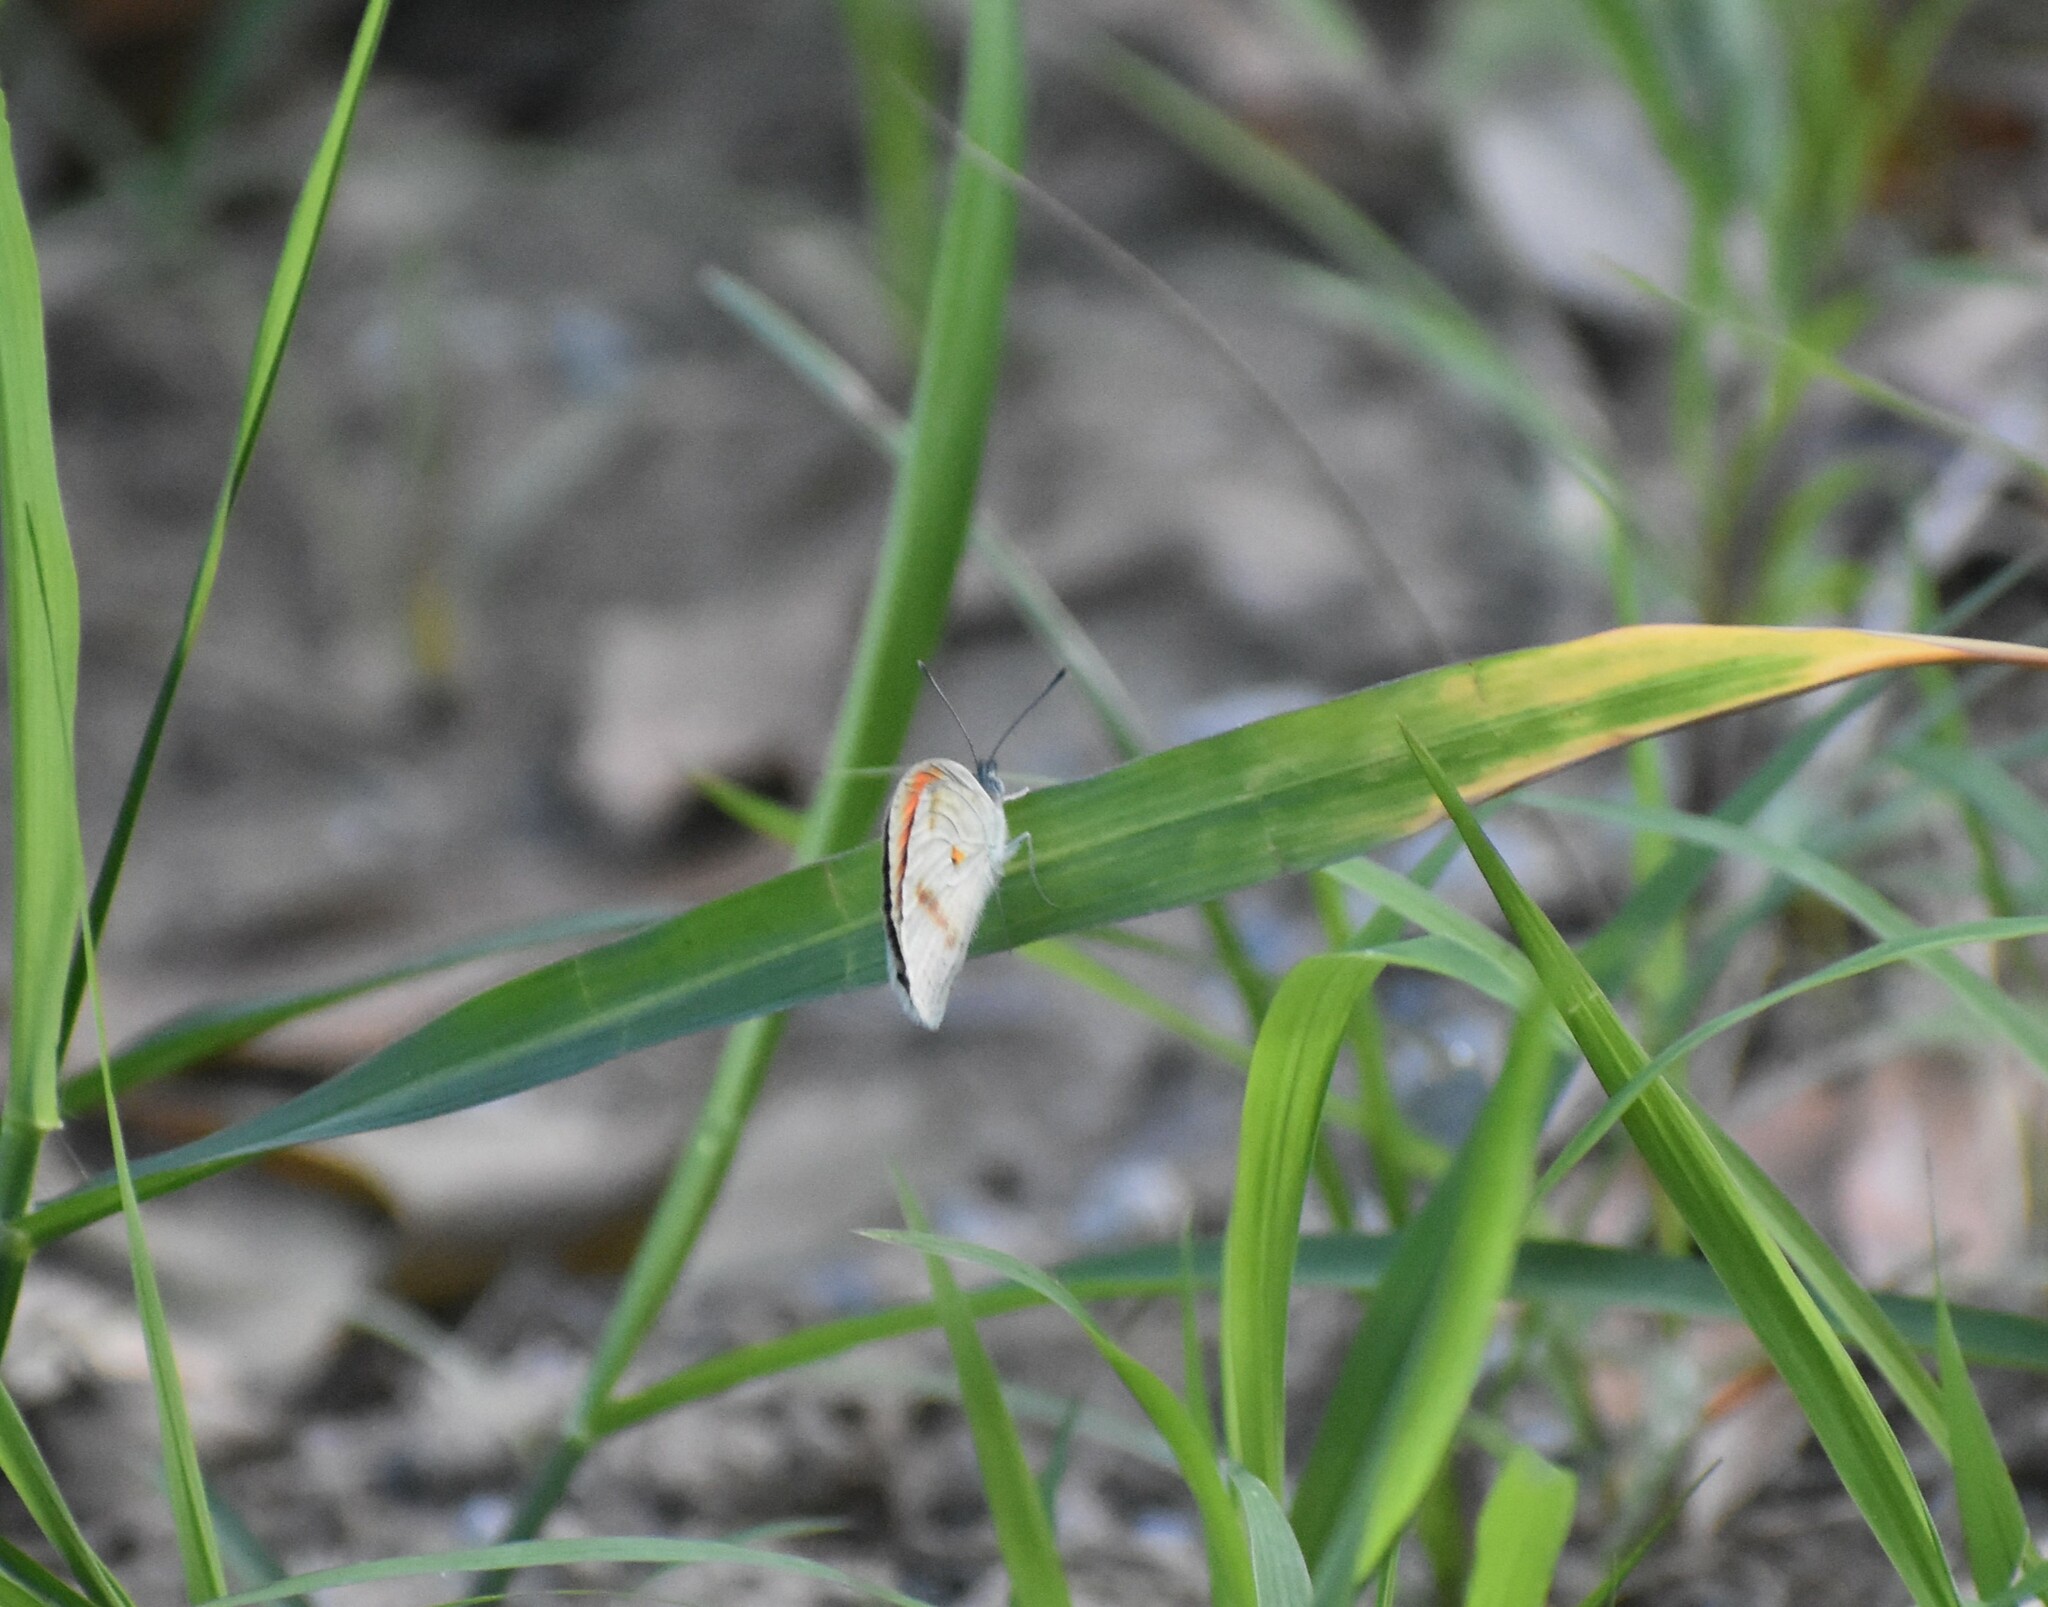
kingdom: Animalia
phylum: Arthropoda
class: Insecta
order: Lepidoptera
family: Pieridae
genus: Colotis
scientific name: Colotis euippe
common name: Round-winged orange tip
